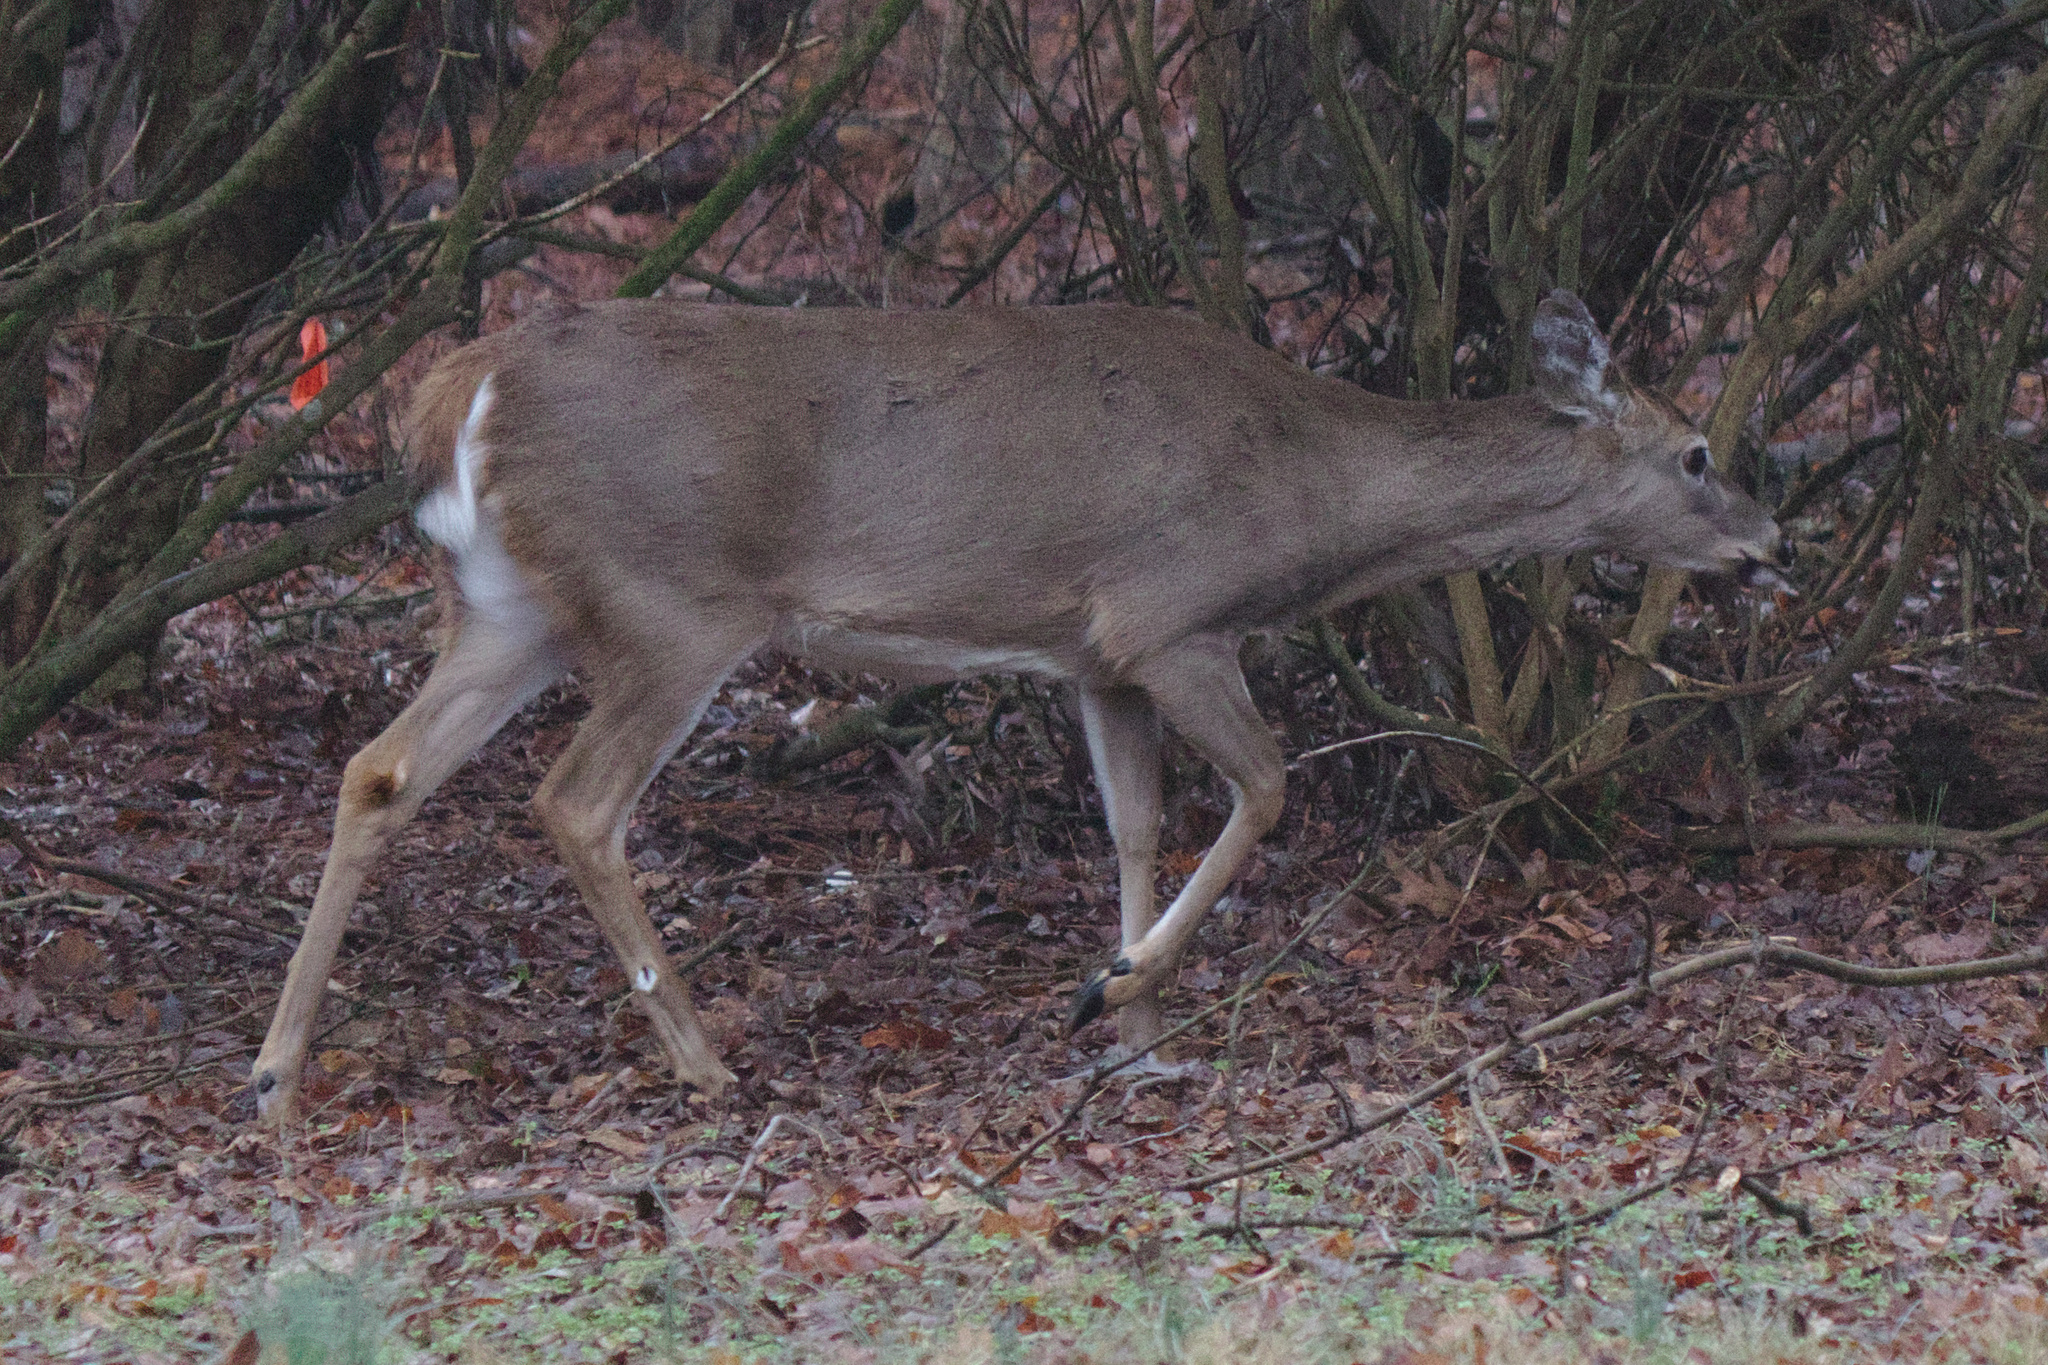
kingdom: Animalia
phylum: Chordata
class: Mammalia
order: Artiodactyla
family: Cervidae
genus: Odocoileus
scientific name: Odocoileus virginianus
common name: White-tailed deer
